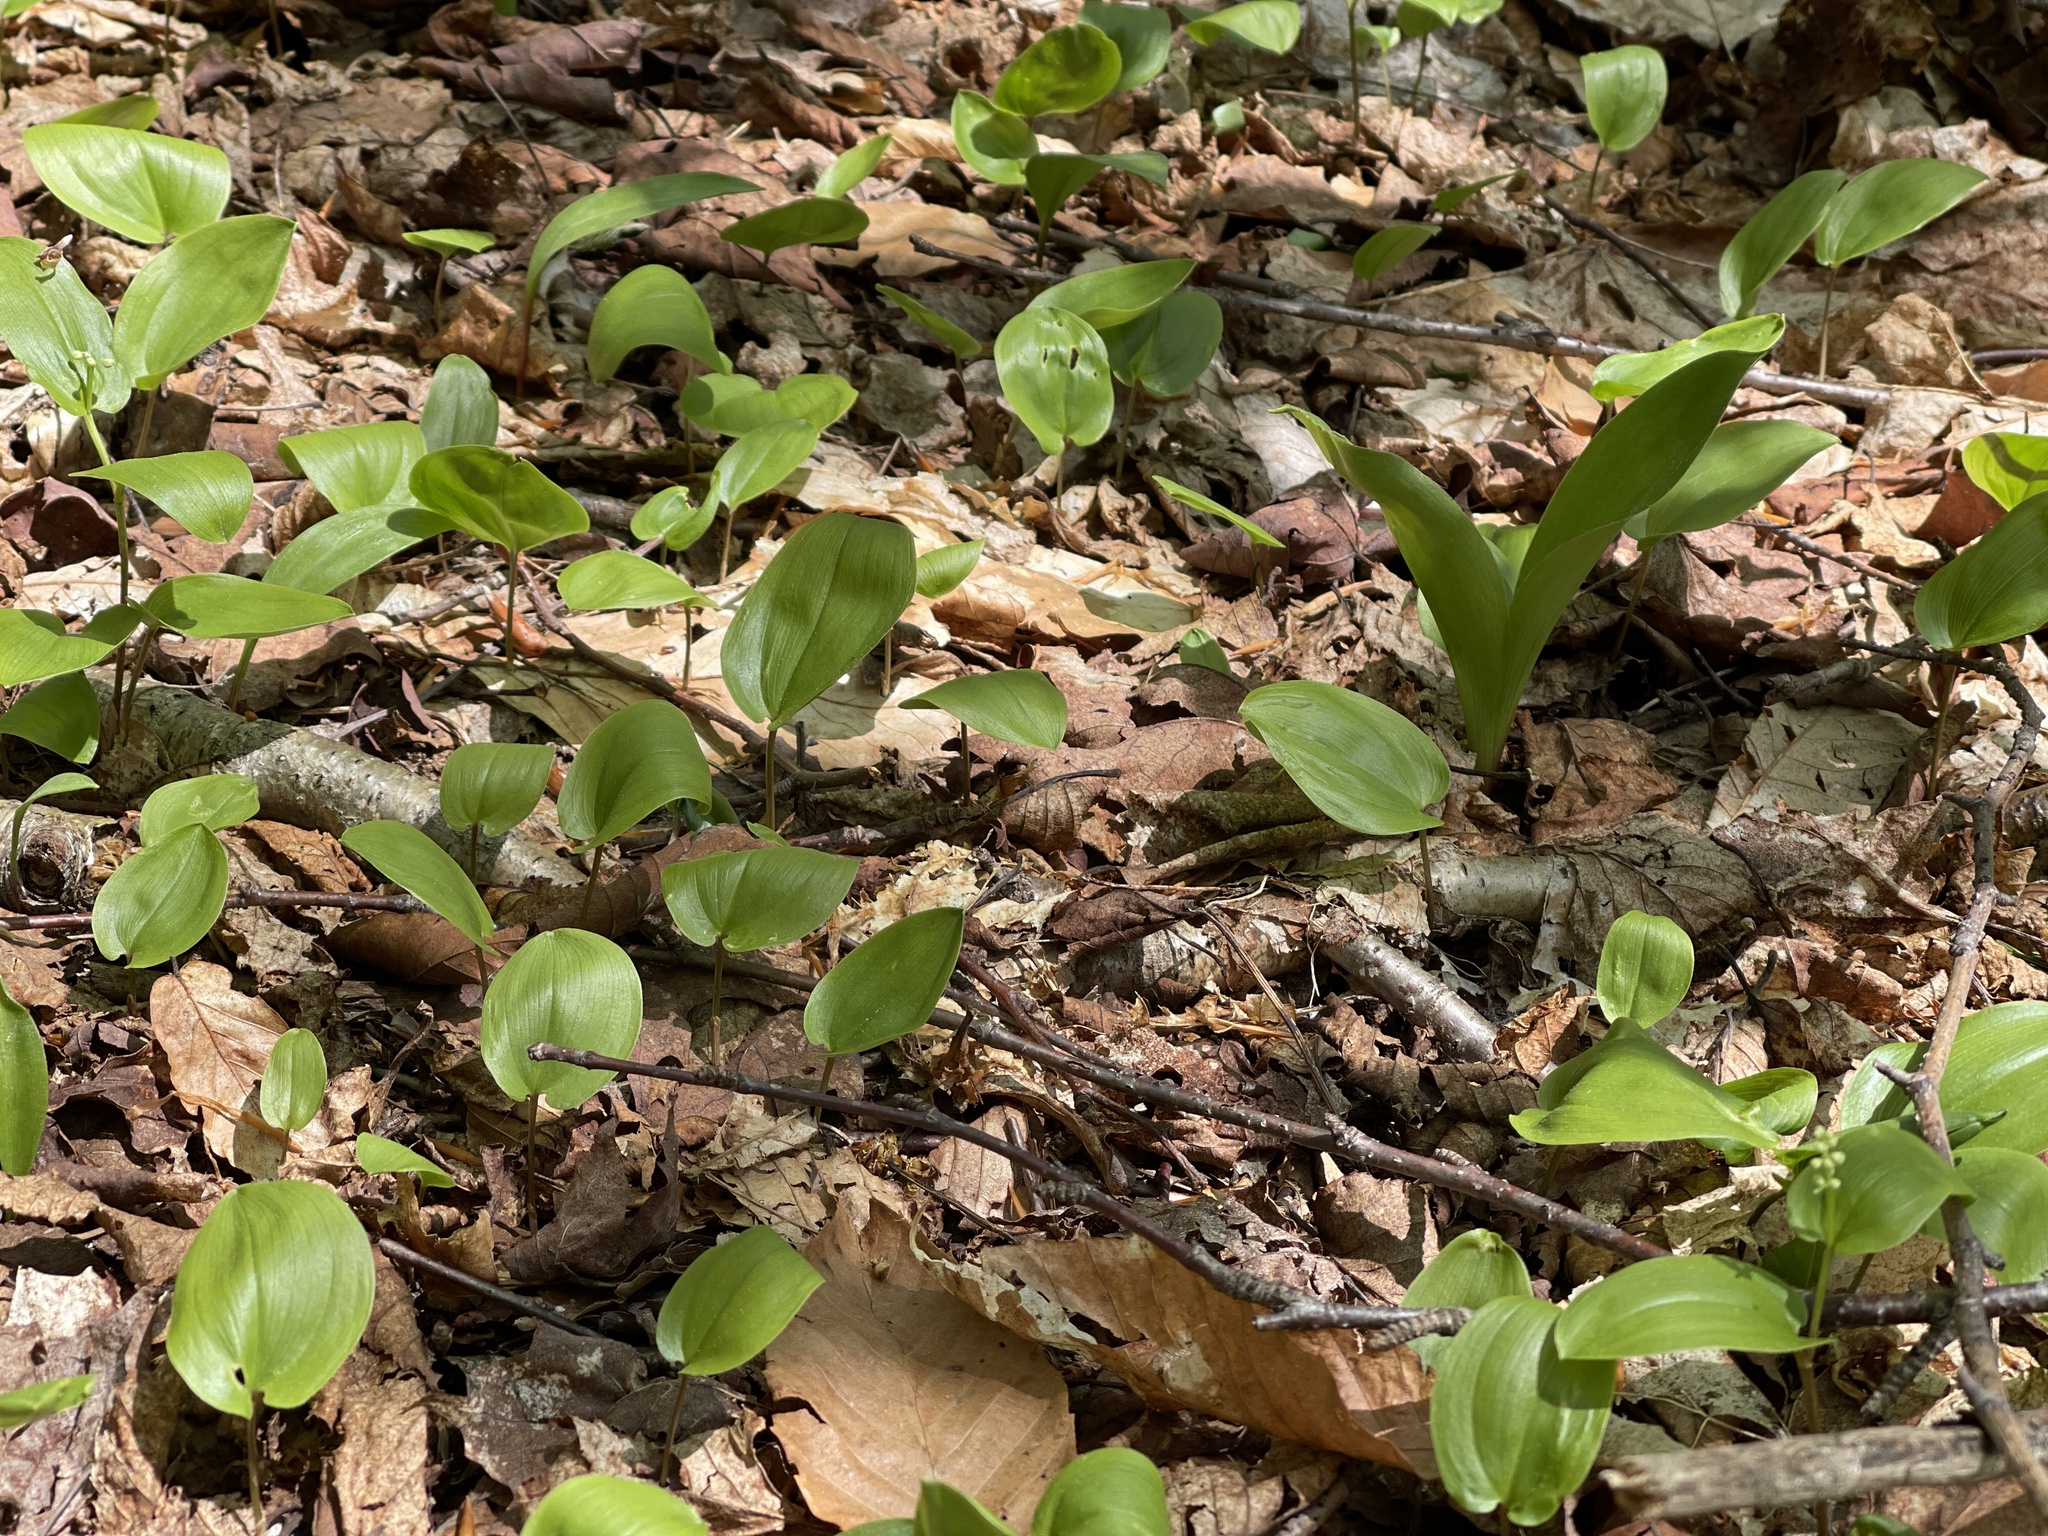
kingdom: Plantae
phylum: Tracheophyta
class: Liliopsida
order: Asparagales
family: Asparagaceae
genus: Maianthemum
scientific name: Maianthemum canadense
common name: False lily-of-the-valley
